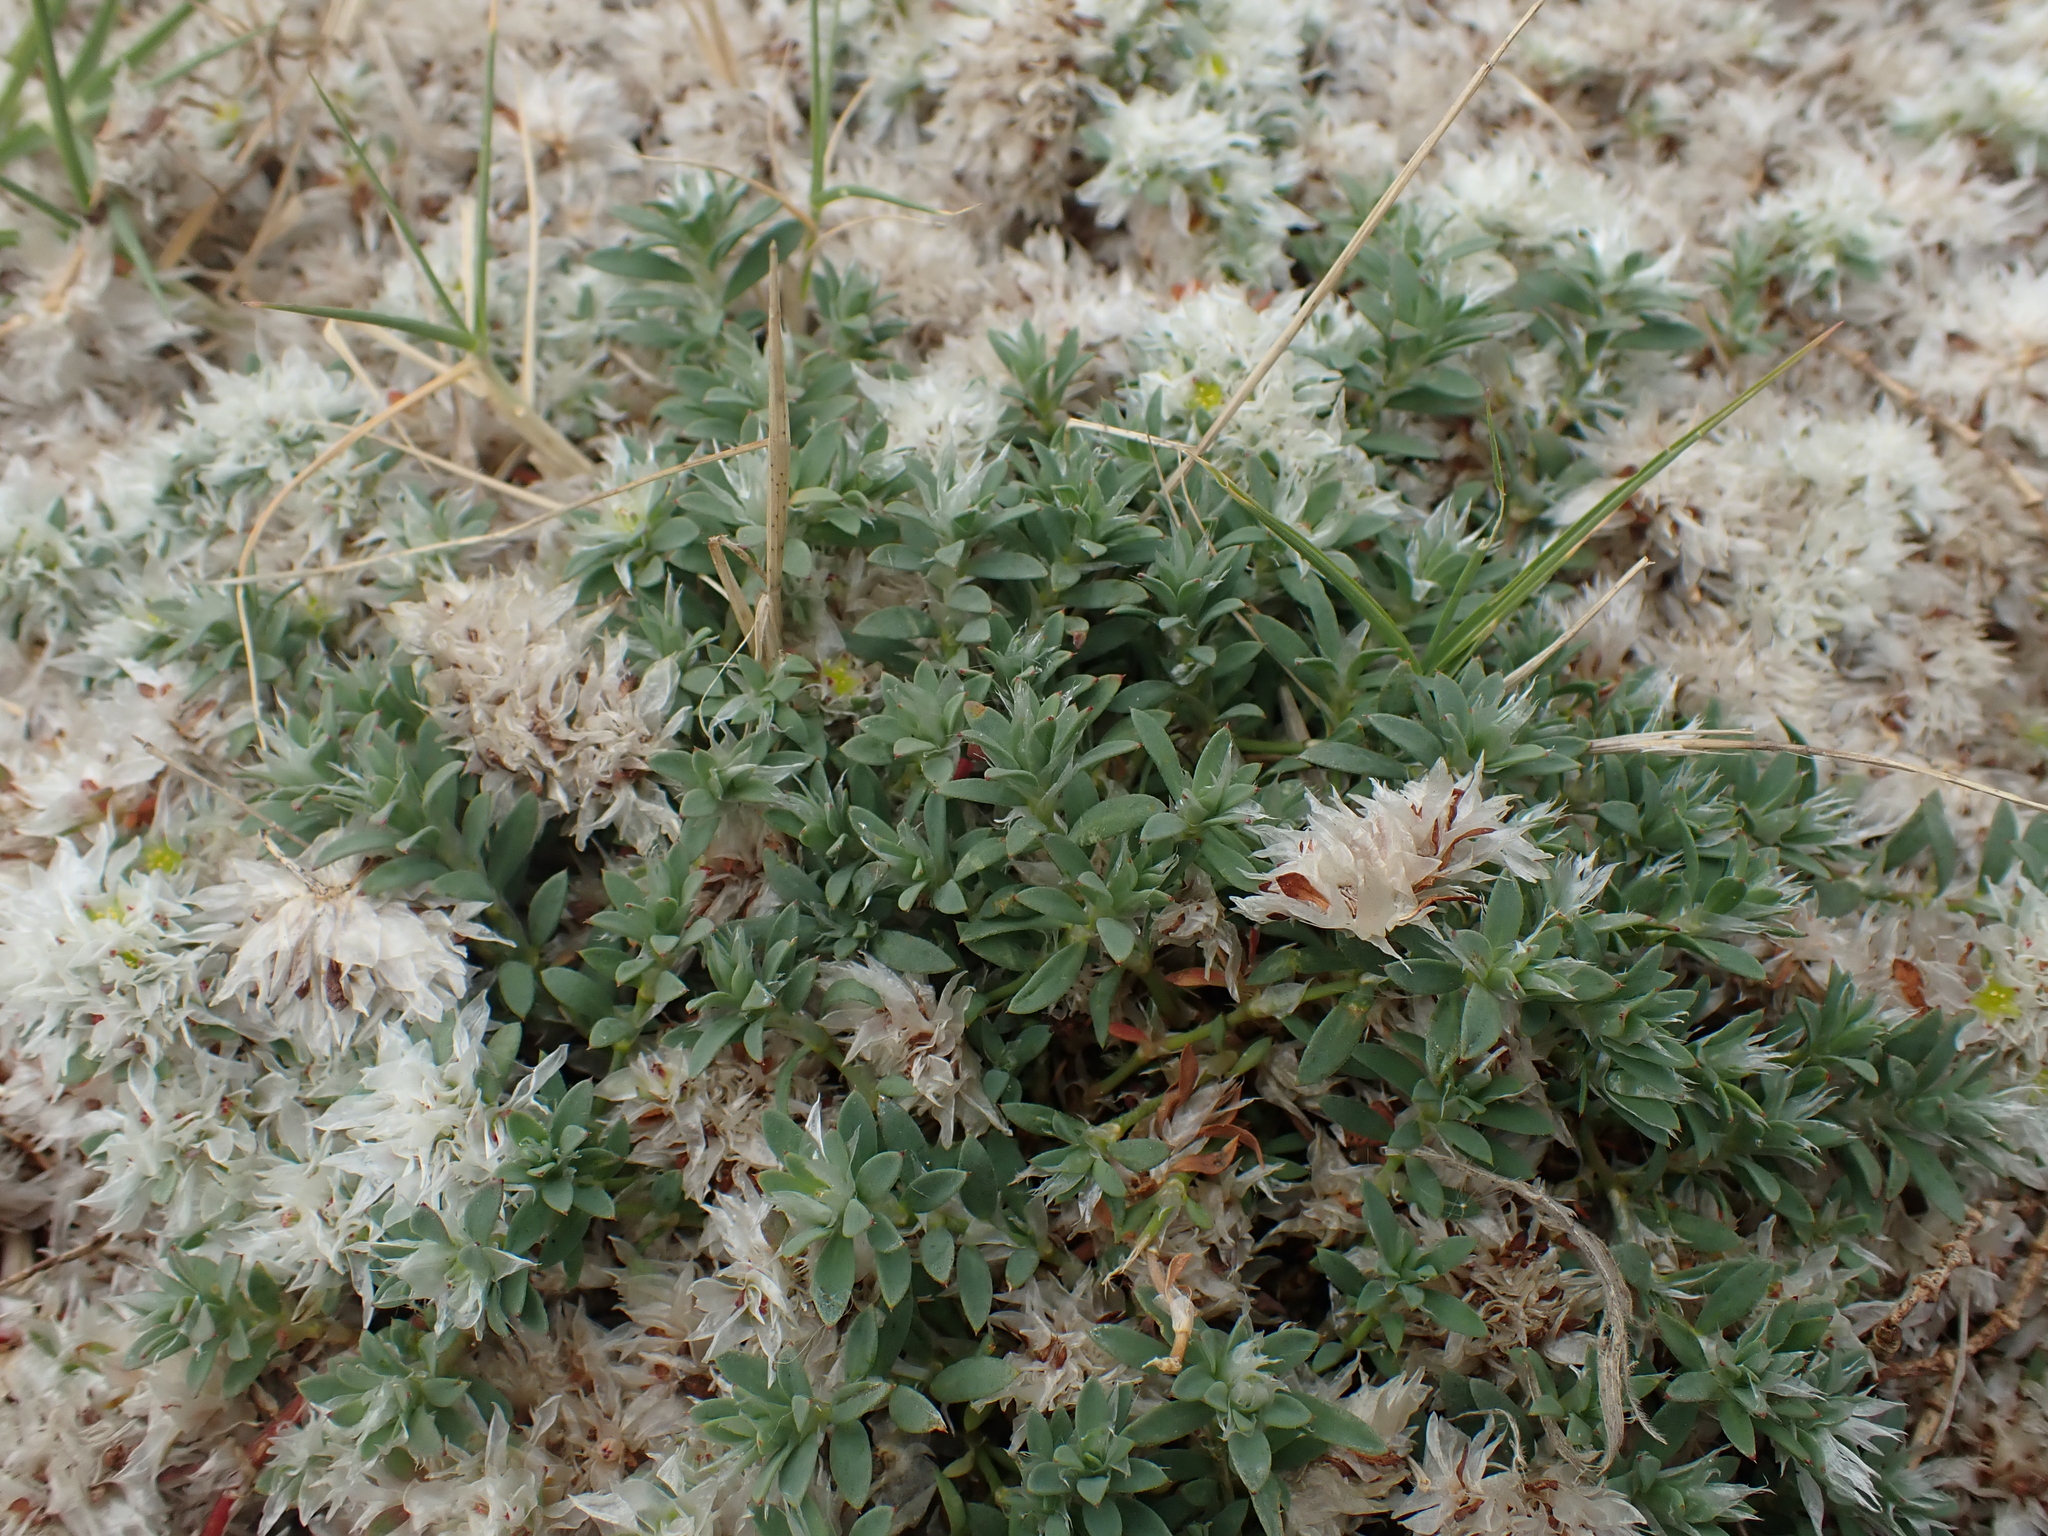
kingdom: Plantae
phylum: Tracheophyta
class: Magnoliopsida
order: Caryophyllales
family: Caryophyllaceae
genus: Paronychia
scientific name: Paronychia argentea
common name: Silver nailroot
